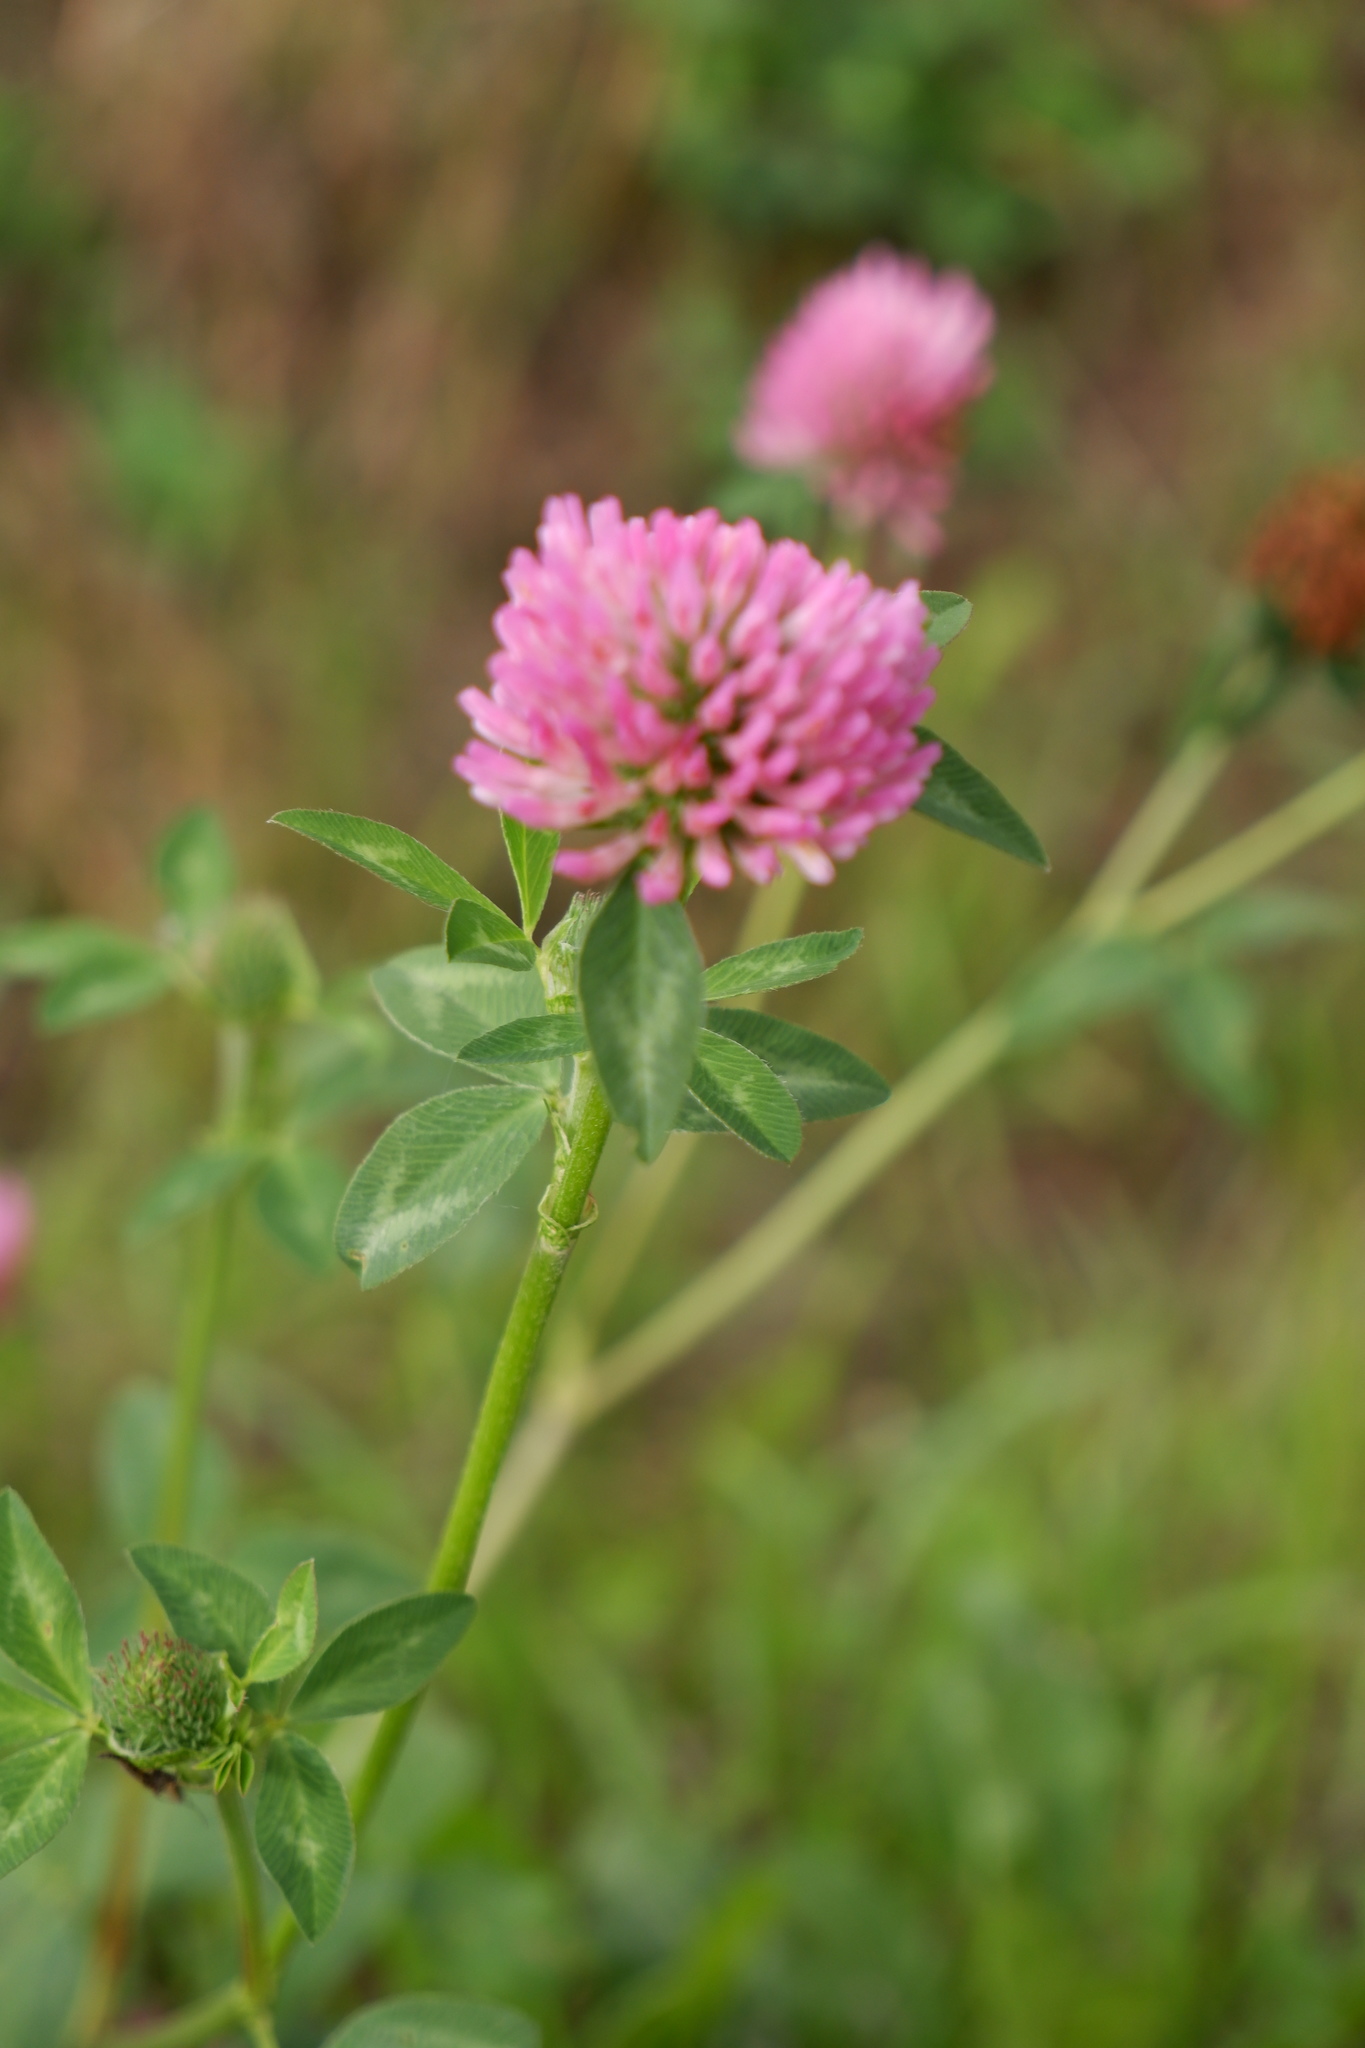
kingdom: Plantae
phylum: Tracheophyta
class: Magnoliopsida
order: Fabales
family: Fabaceae
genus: Trifolium
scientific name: Trifolium pratense
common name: Red clover
